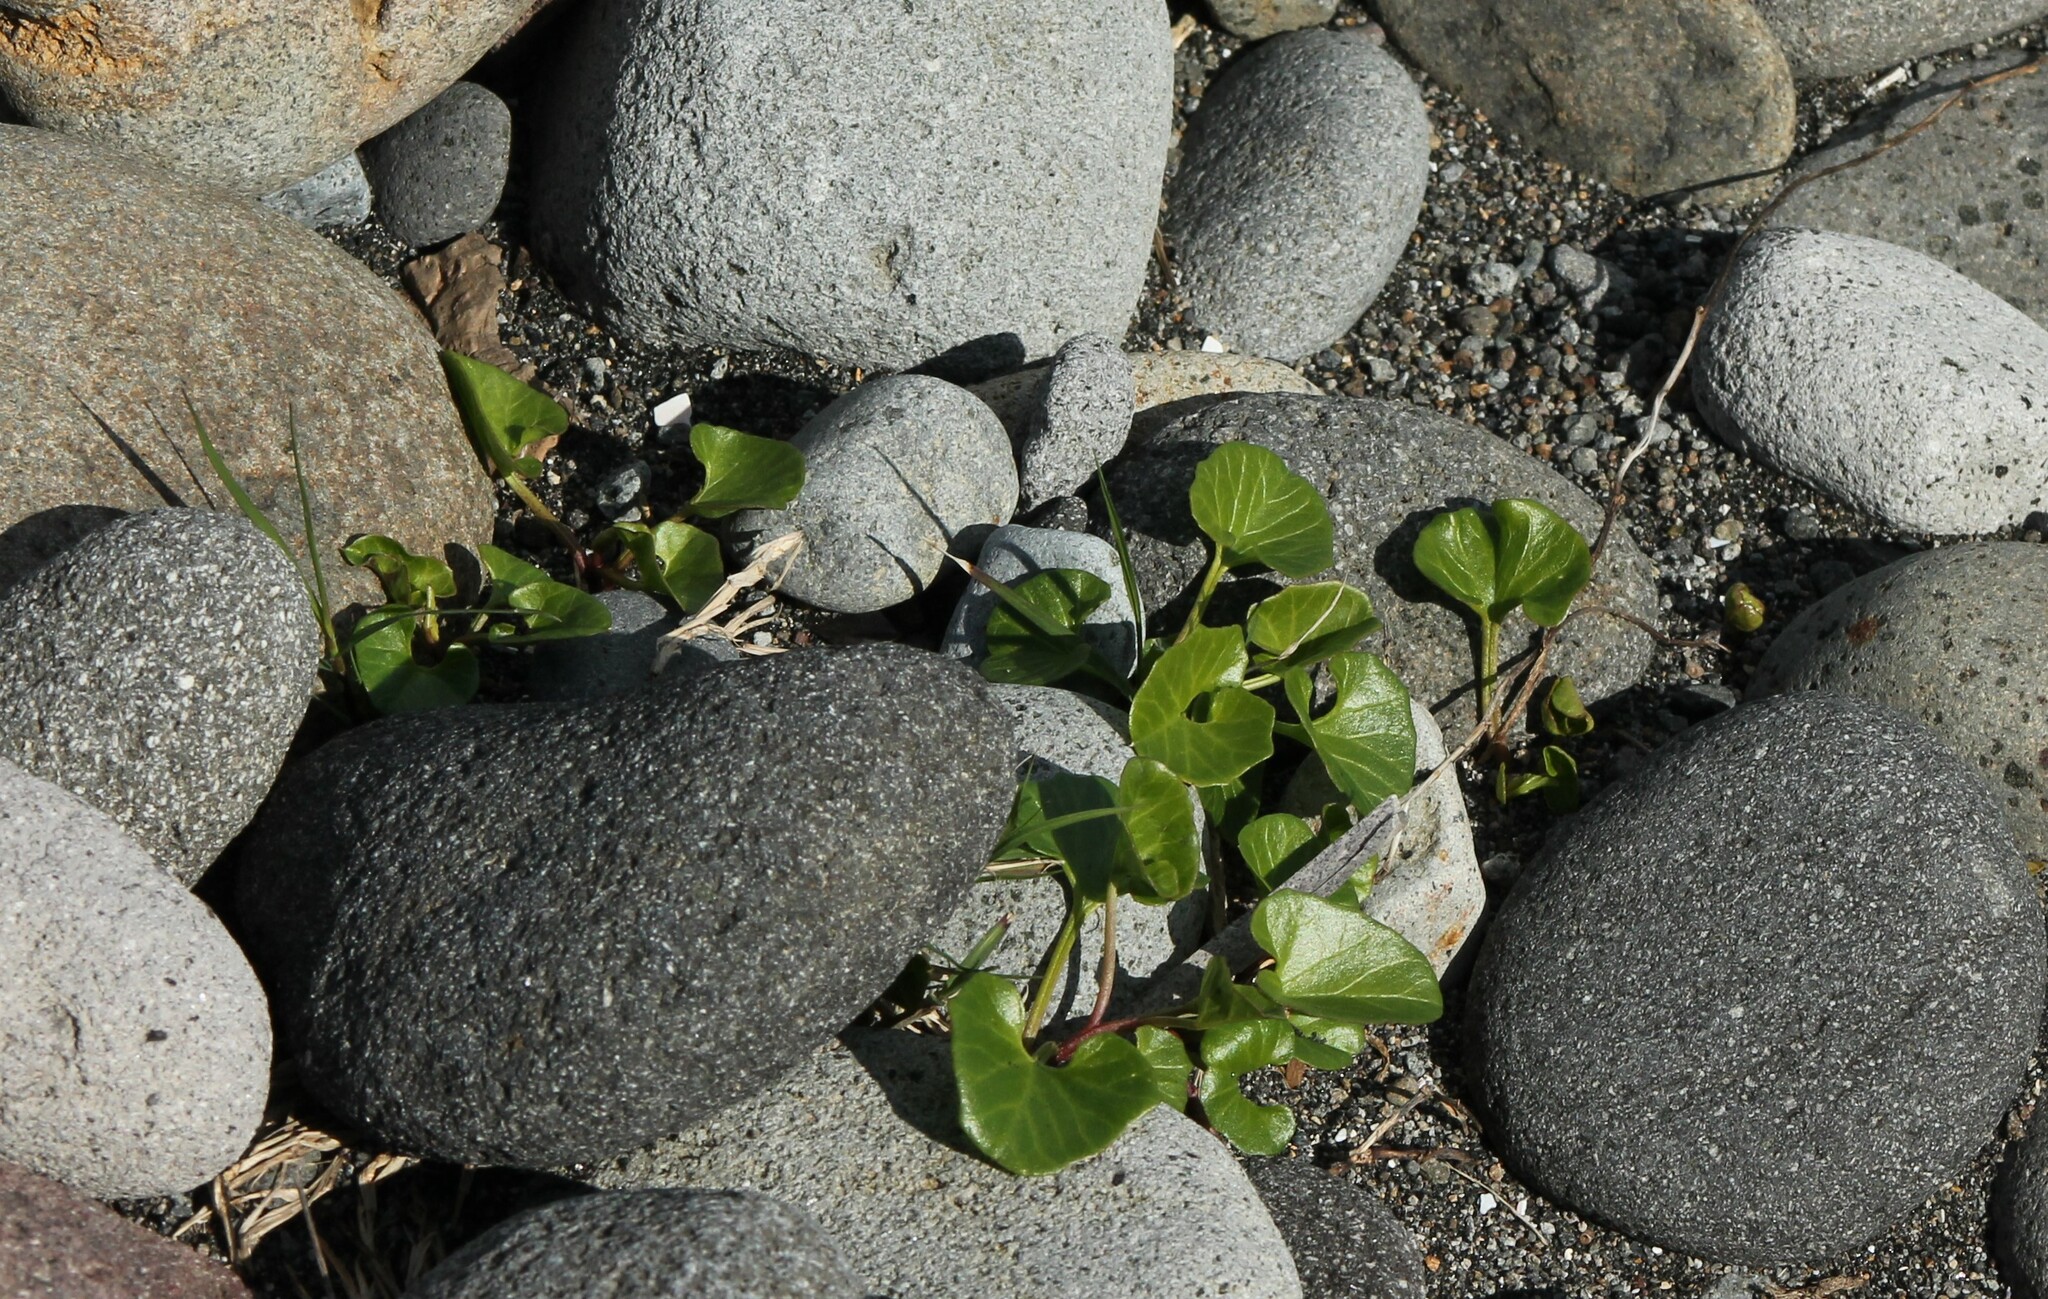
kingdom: Plantae
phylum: Tracheophyta
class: Magnoliopsida
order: Solanales
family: Convolvulaceae
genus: Calystegia
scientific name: Calystegia soldanella
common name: Sea bindweed
